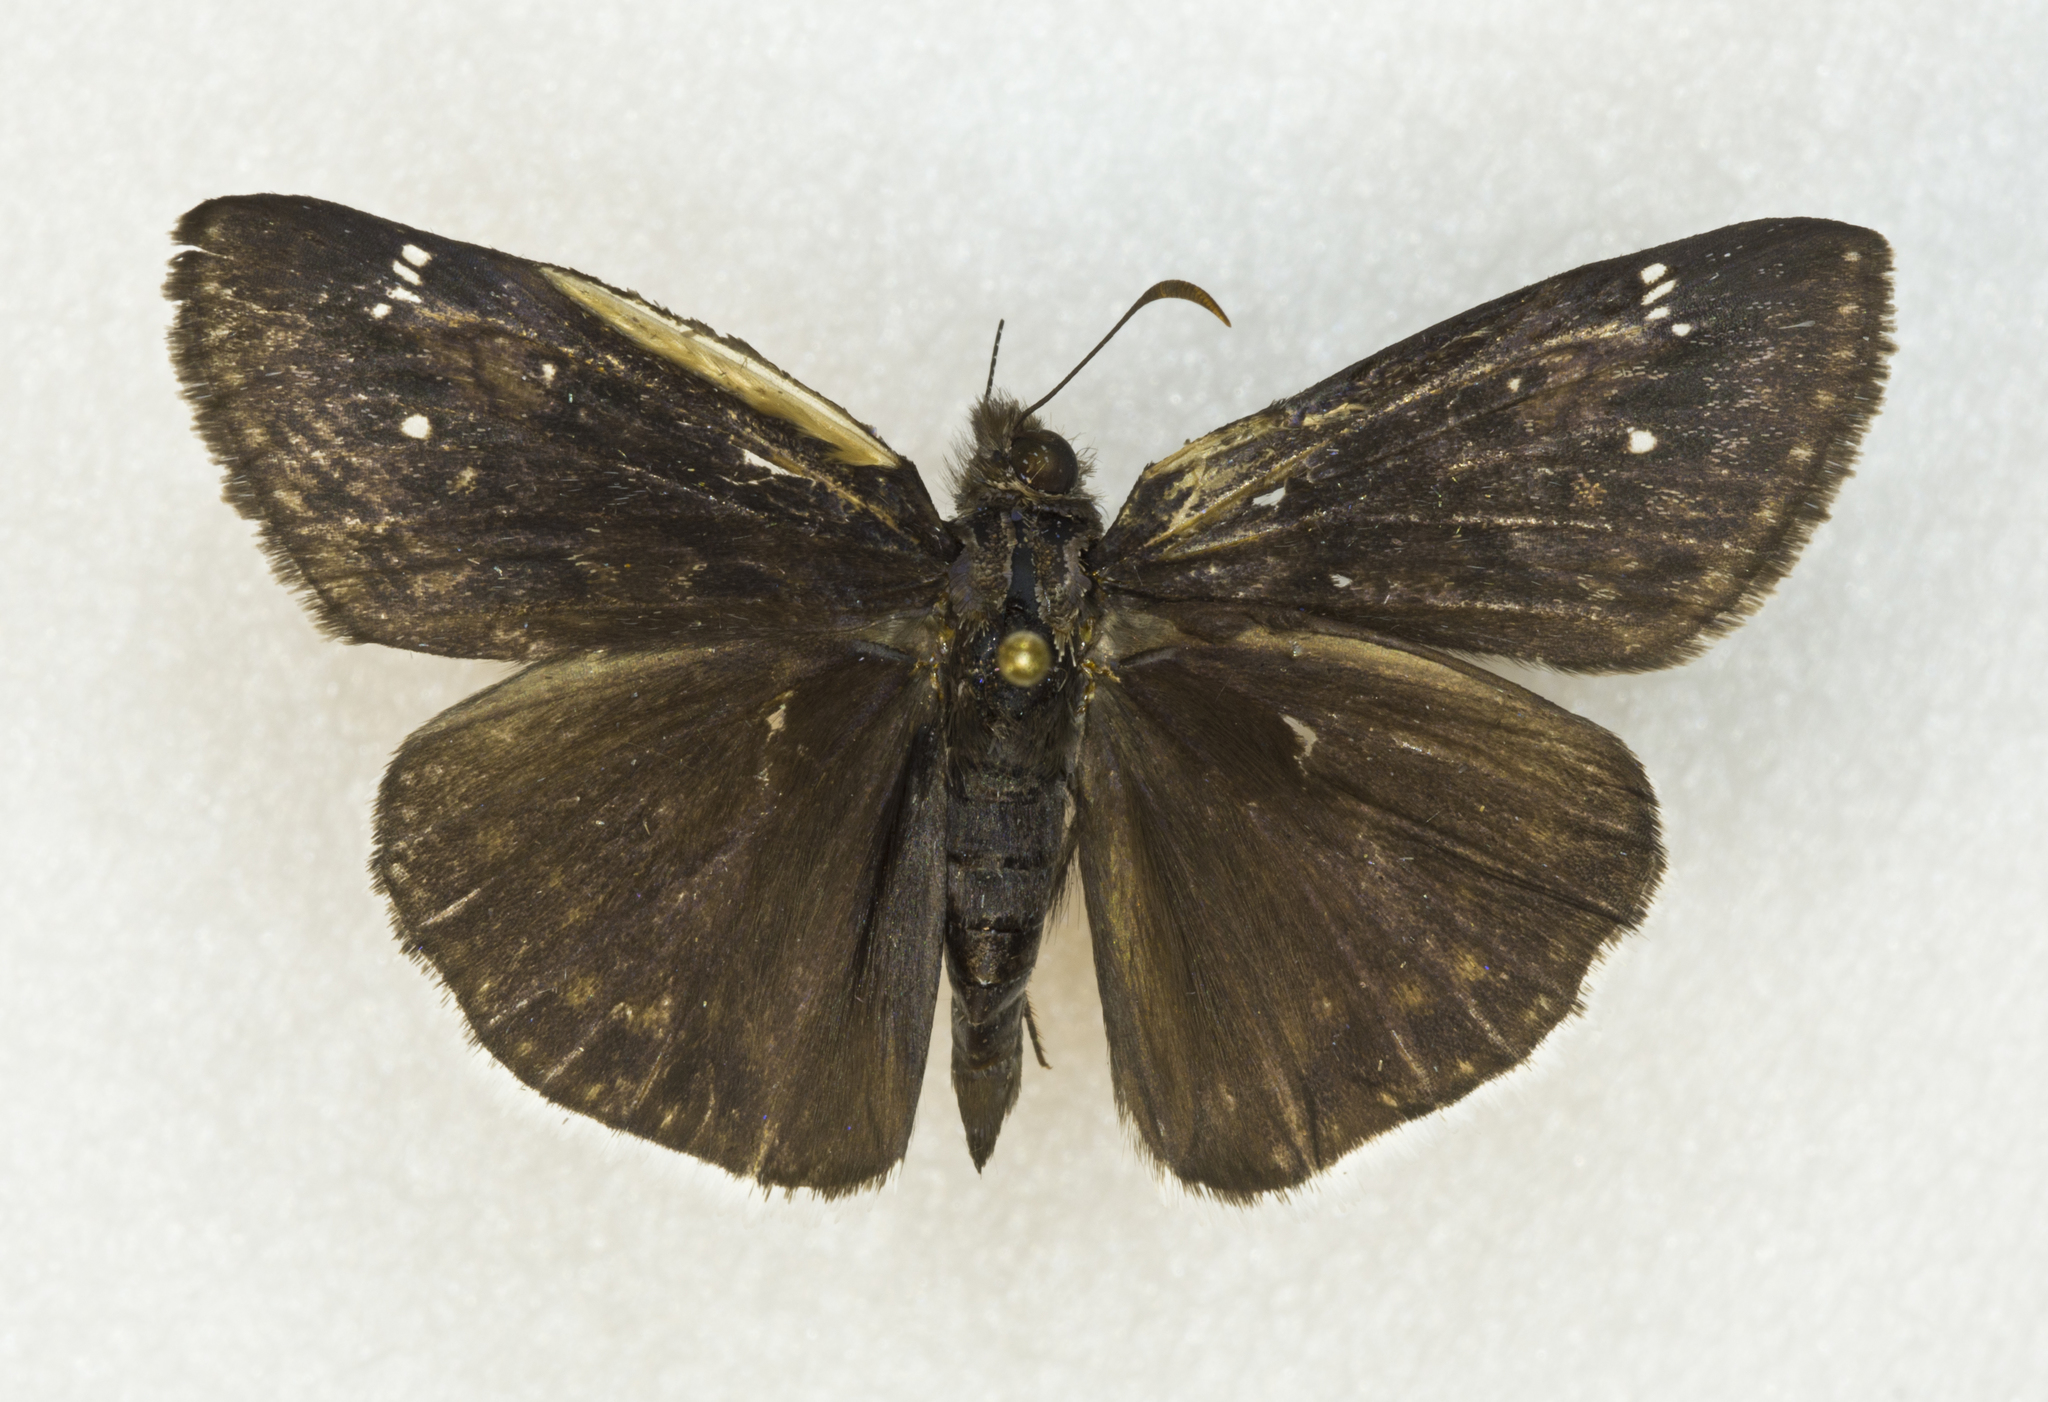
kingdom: Animalia
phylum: Arthropoda
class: Insecta
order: Lepidoptera
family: Hesperiidae
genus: Erynnis
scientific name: Erynnis funeralis
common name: Funereal duskywing
